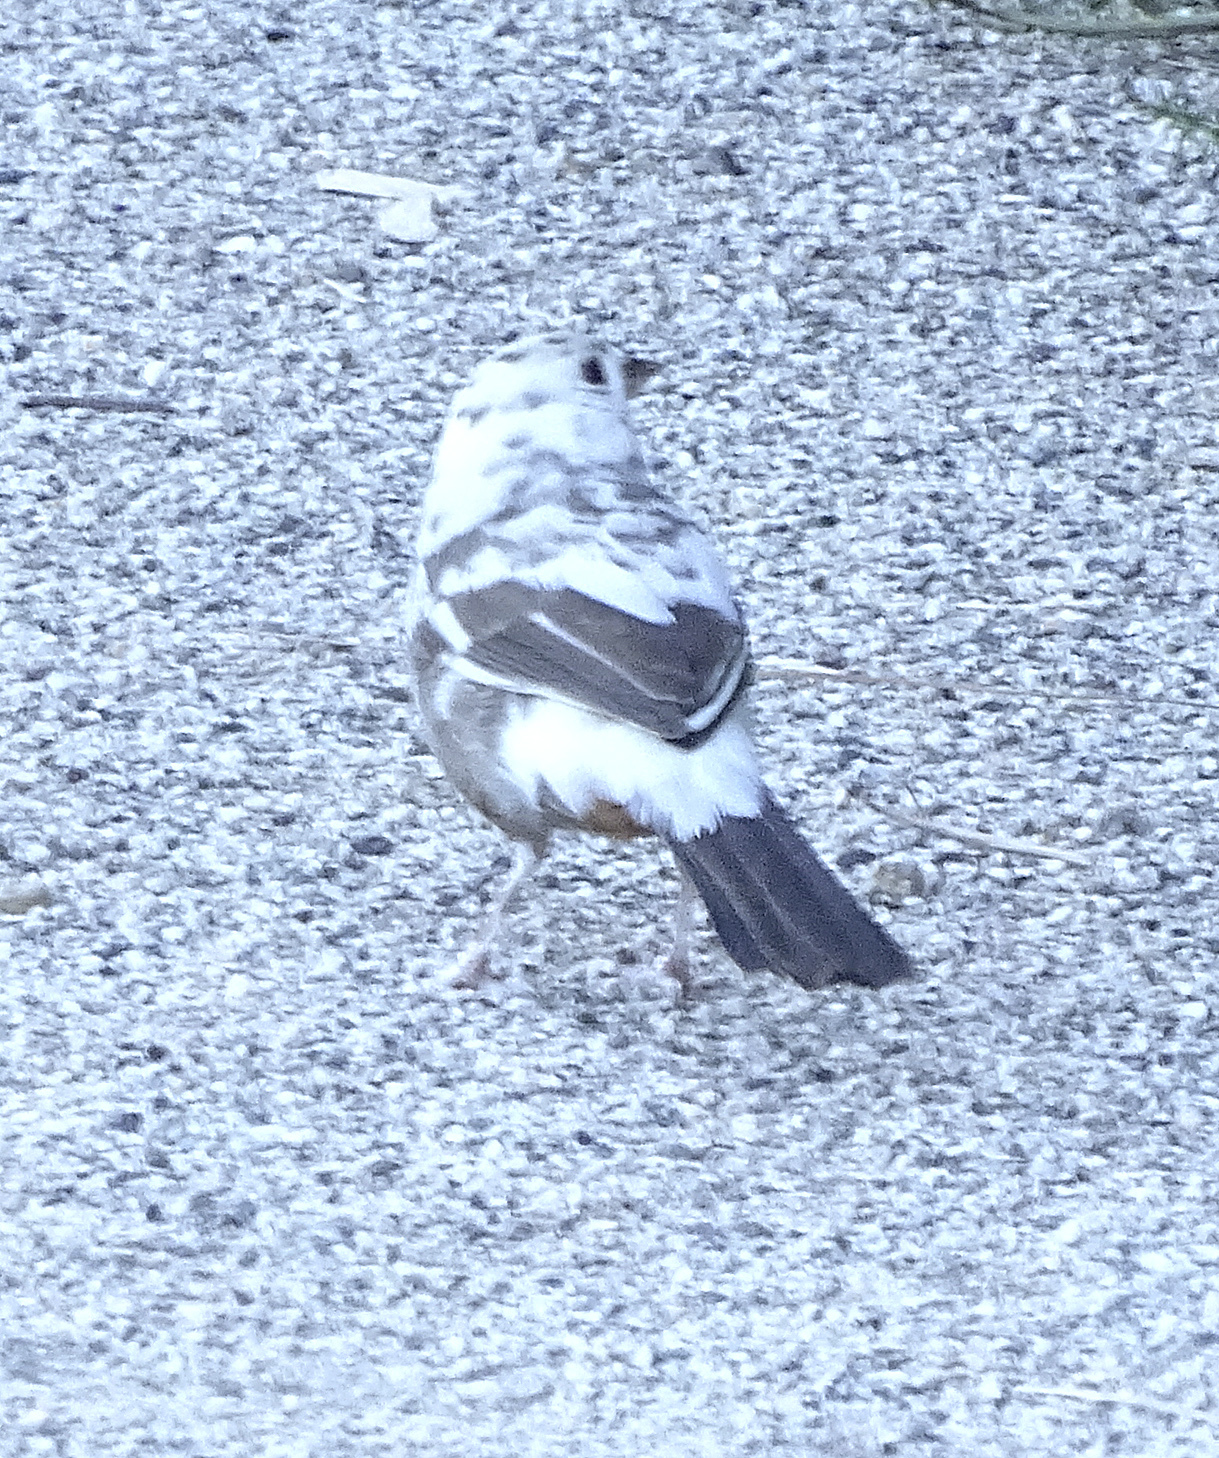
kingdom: Animalia
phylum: Chordata
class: Aves
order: Passeriformes
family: Passerellidae
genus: Melozone
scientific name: Melozone crissalis
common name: California towhee
